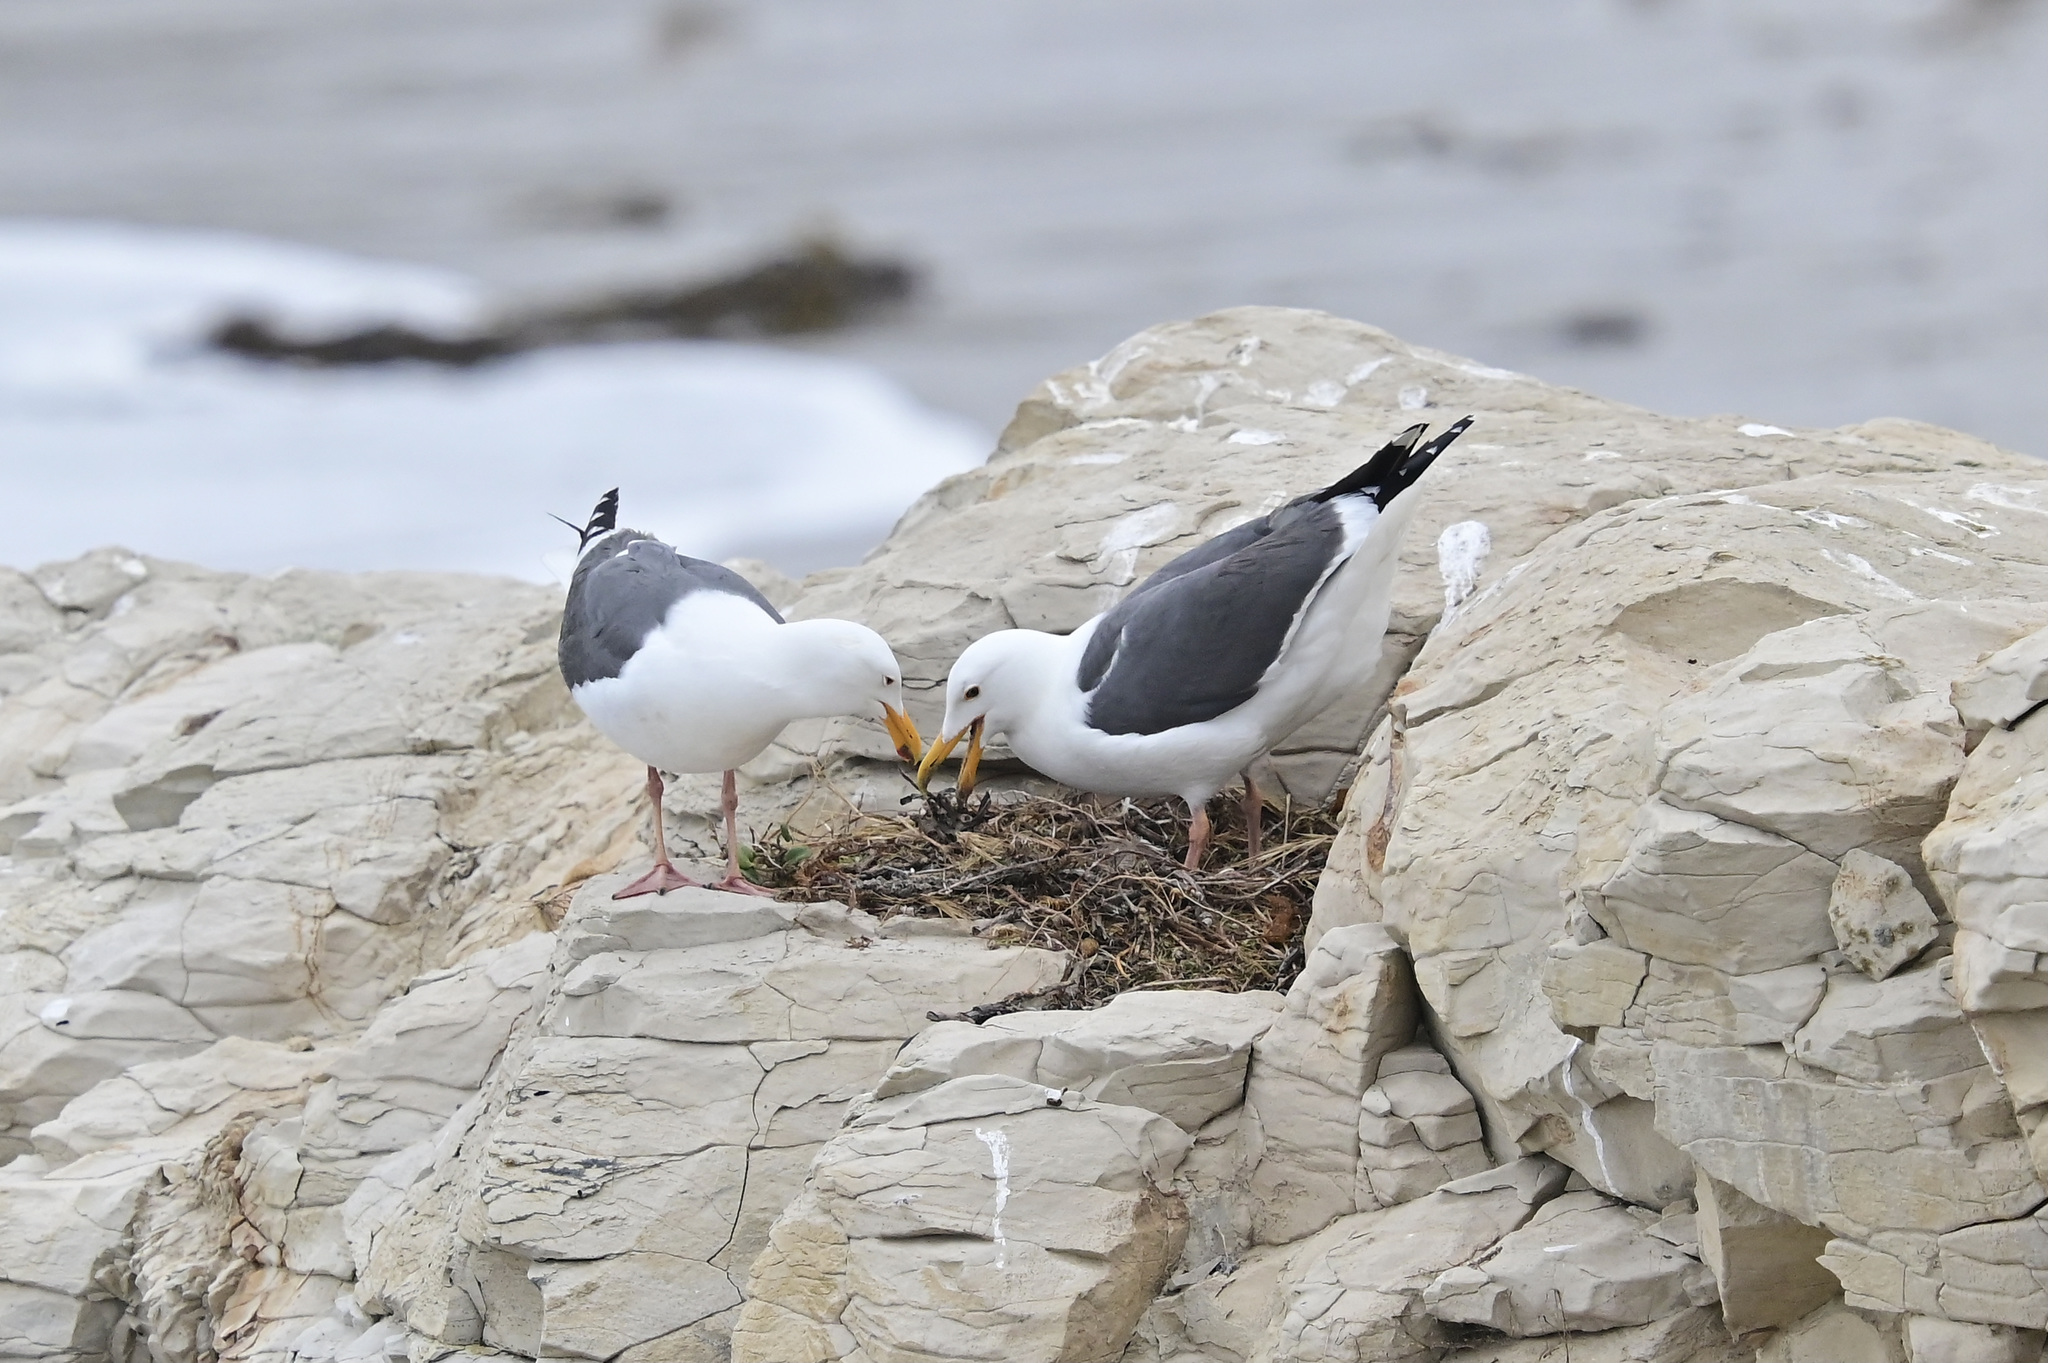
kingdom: Animalia
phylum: Chordata
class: Aves
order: Charadriiformes
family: Laridae
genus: Larus
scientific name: Larus occidentalis
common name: Western gull
